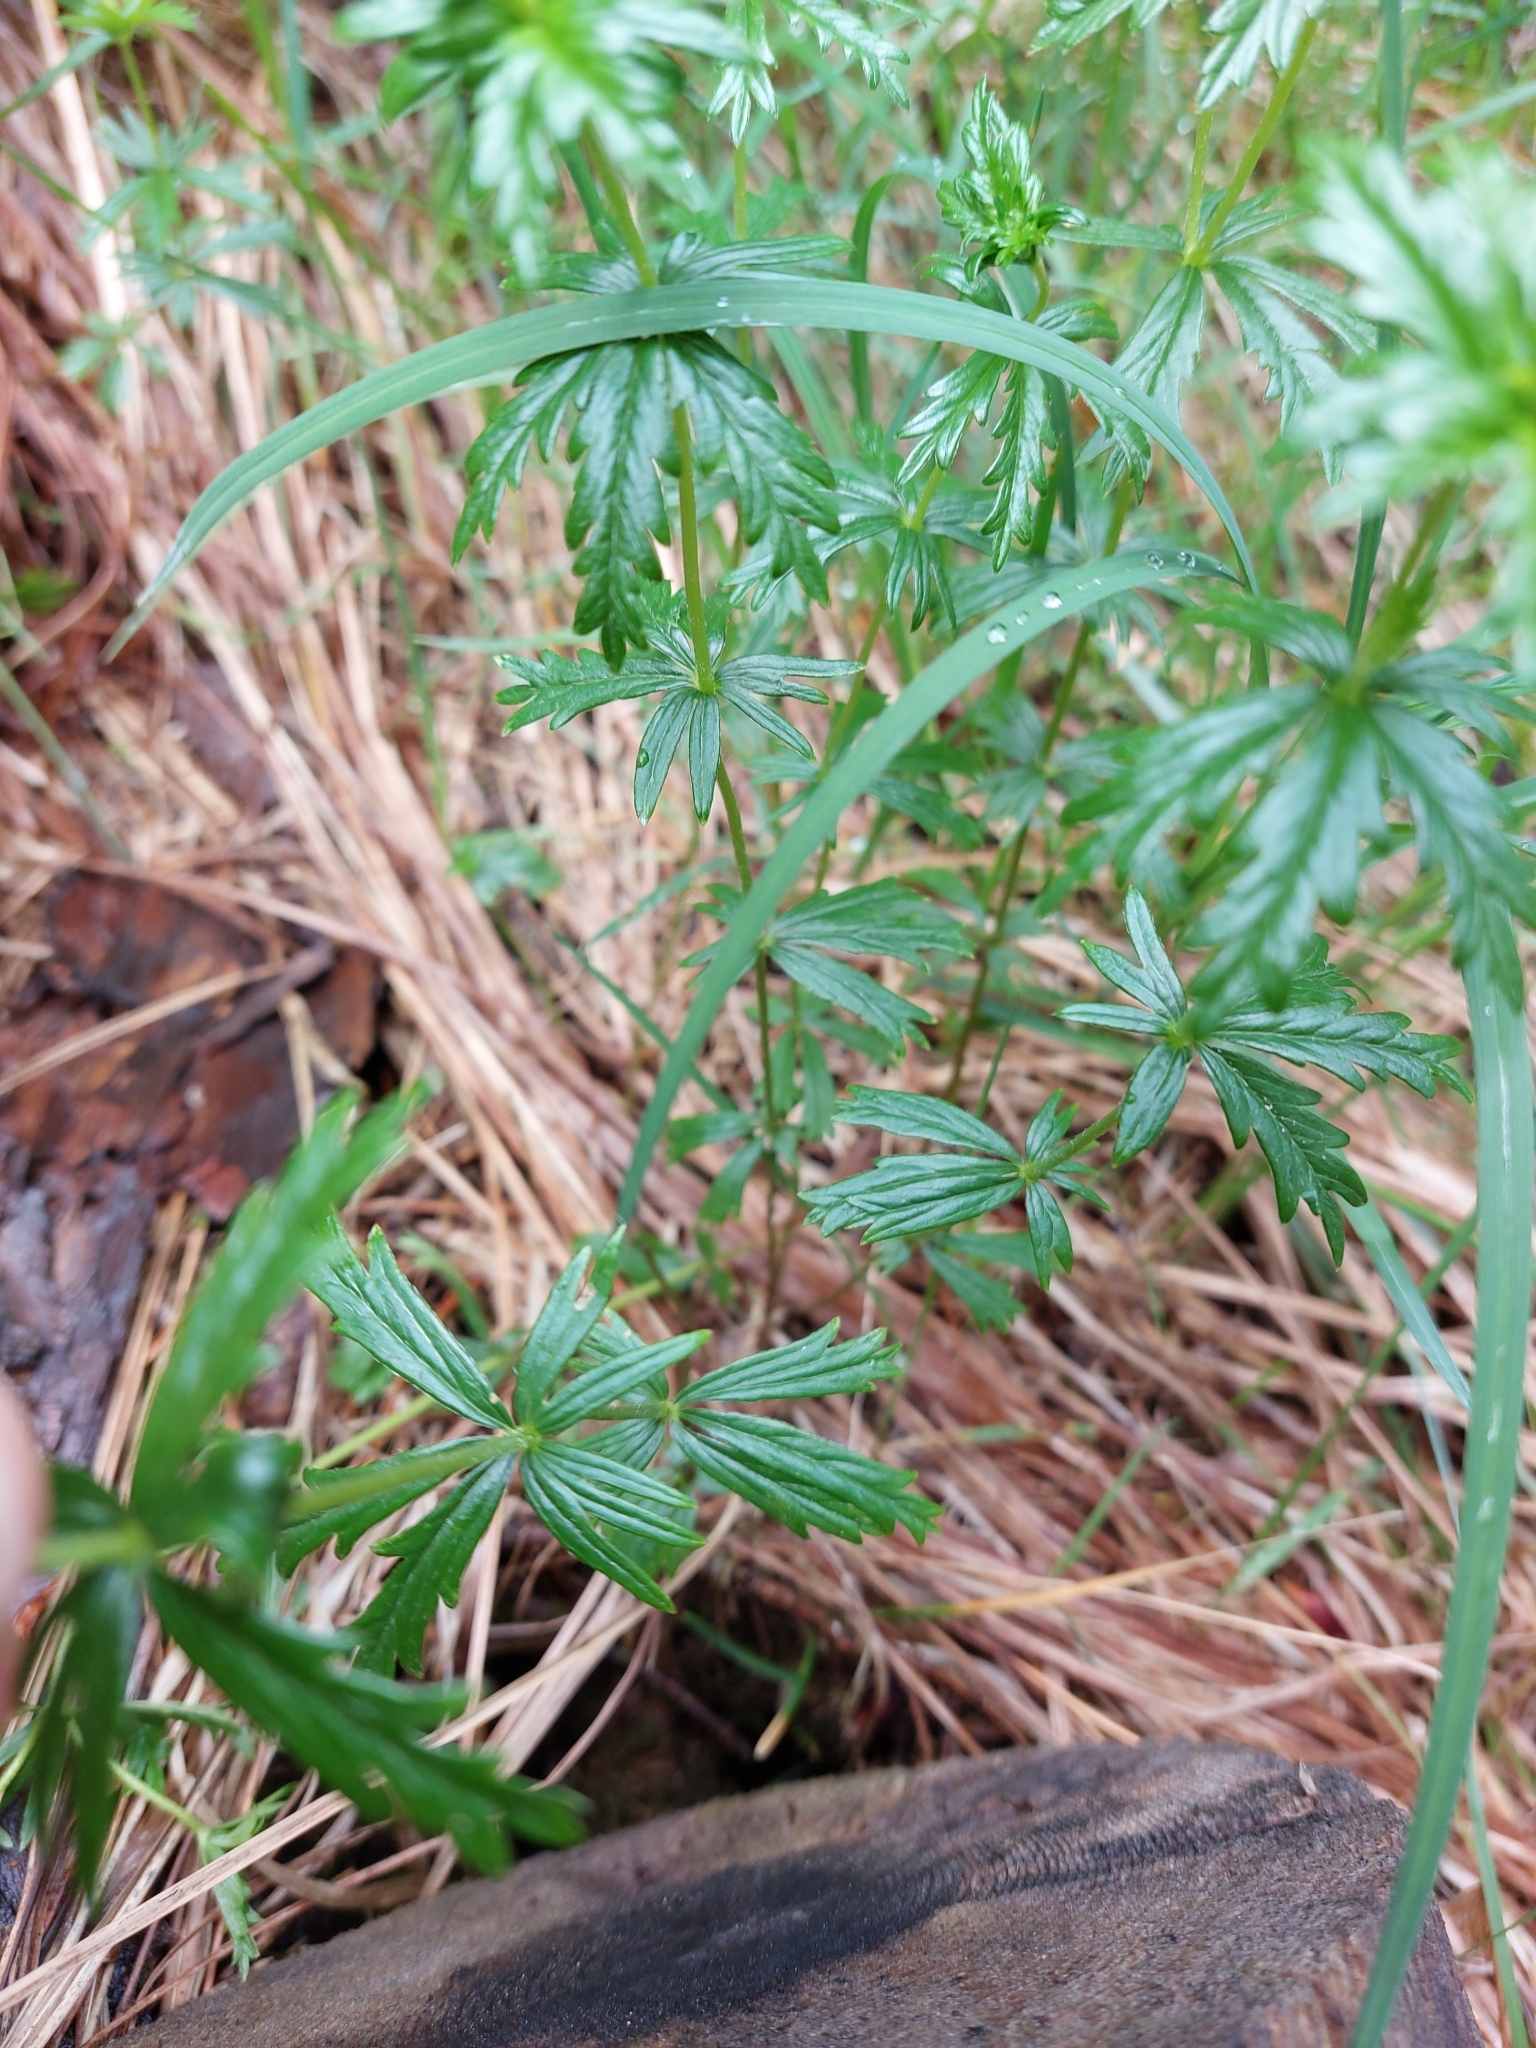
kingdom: Plantae
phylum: Tracheophyta
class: Magnoliopsida
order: Rosales
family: Rosaceae
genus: Potentilla
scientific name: Potentilla erecta
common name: Tormentil
